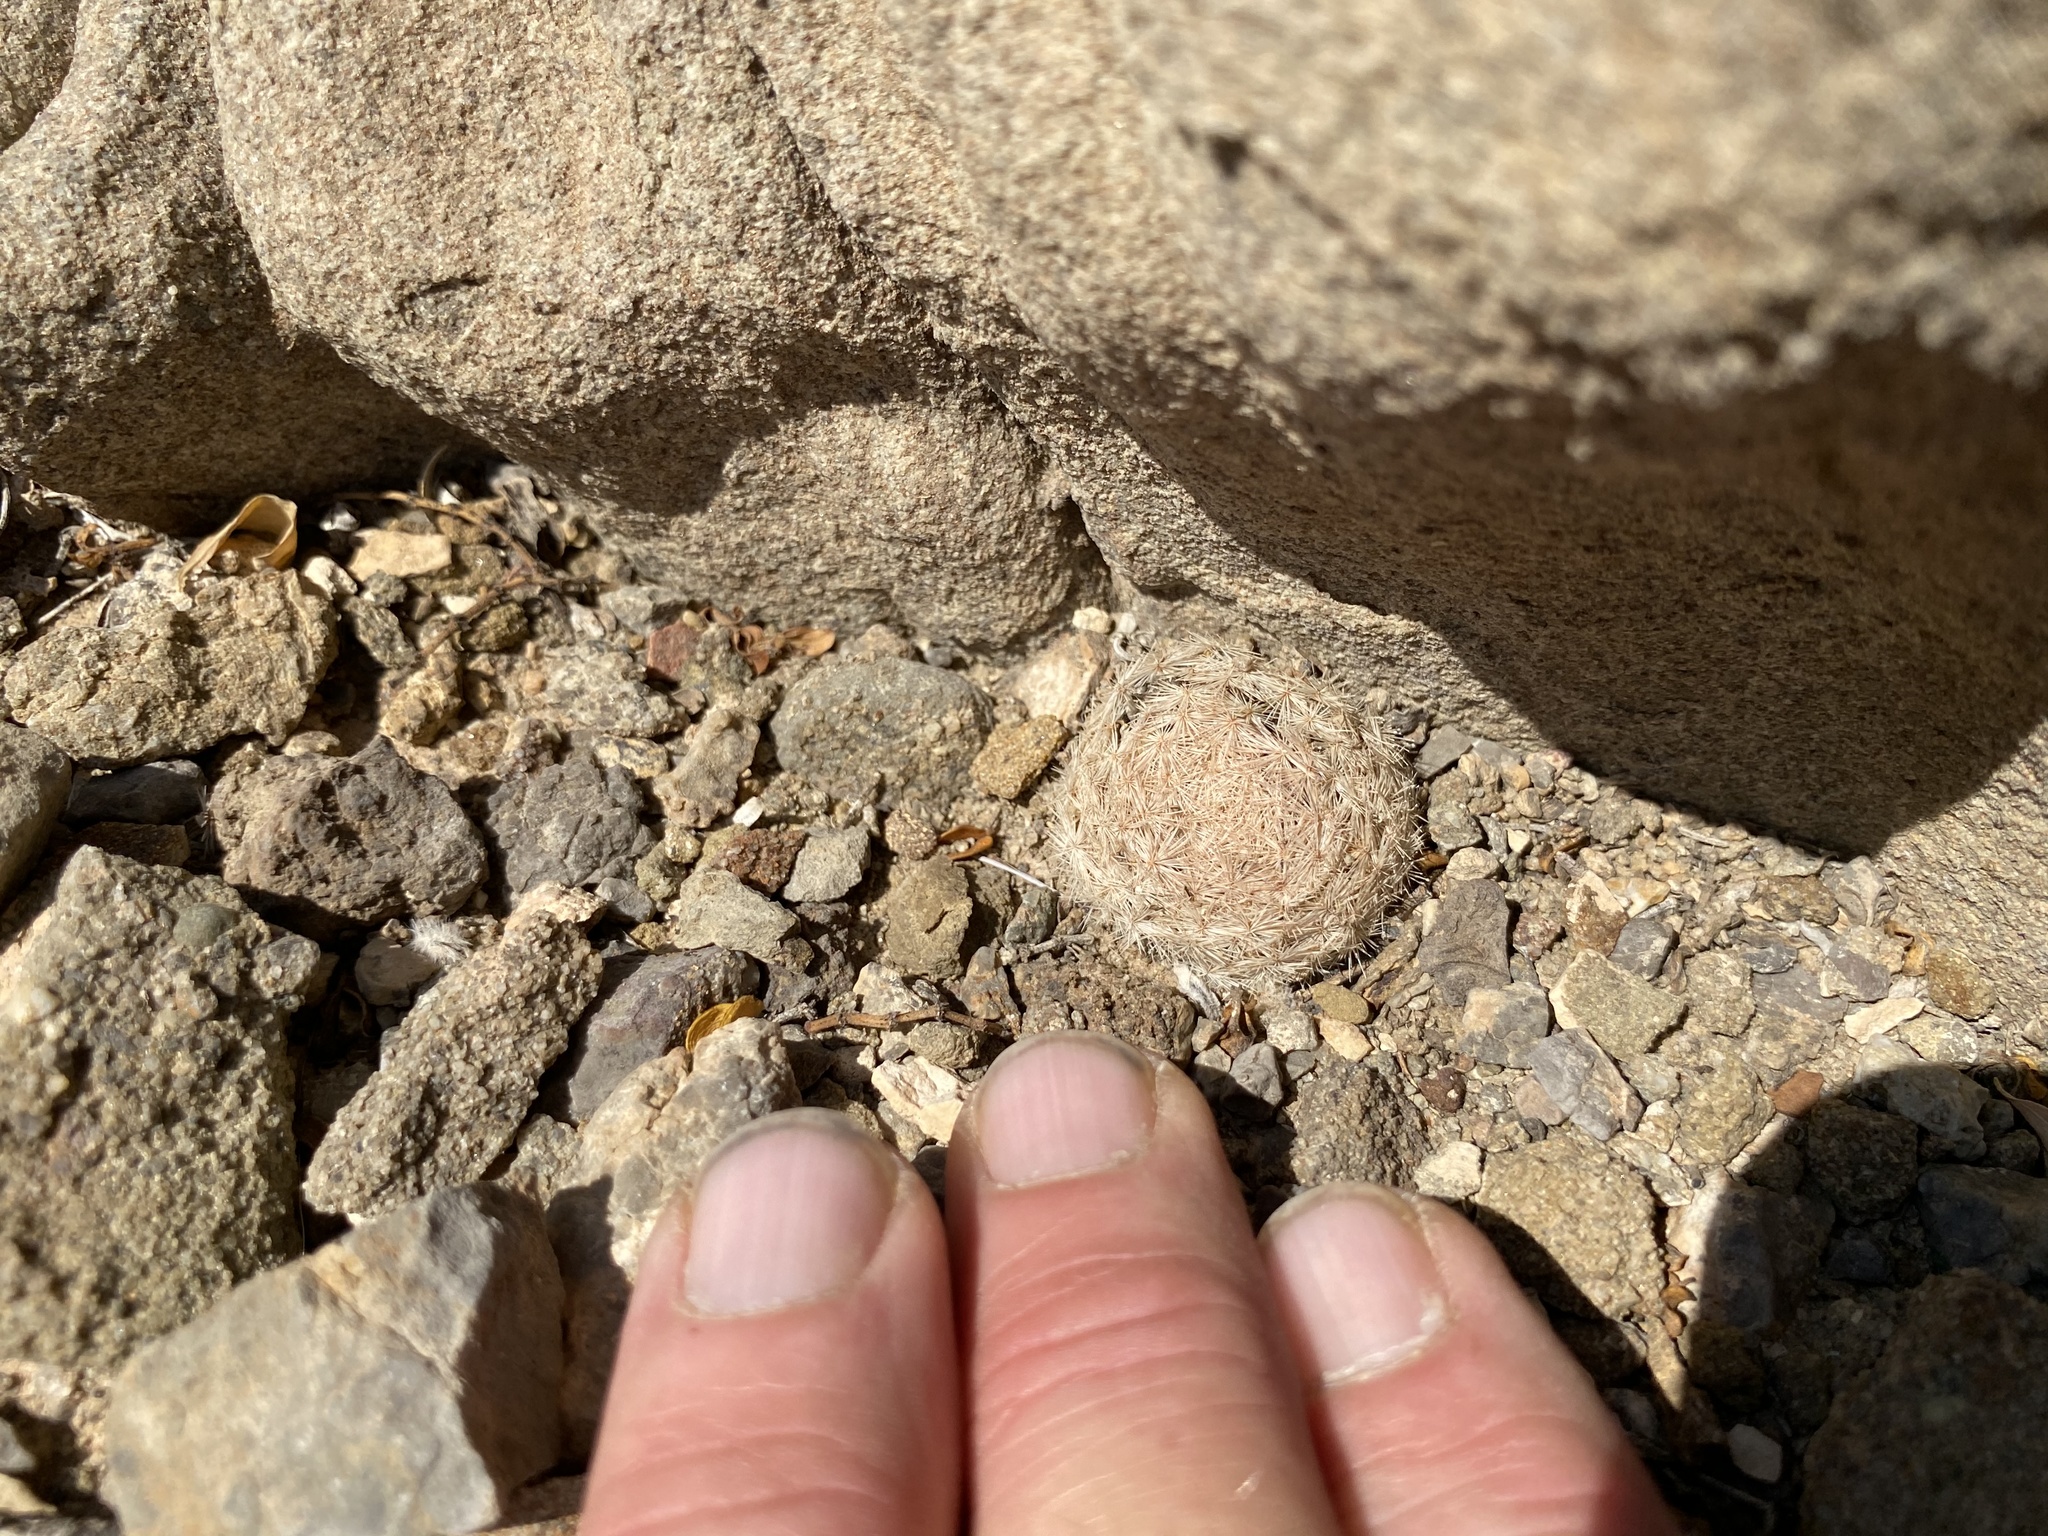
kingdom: Plantae
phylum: Tracheophyta
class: Magnoliopsida
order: Caryophyllales
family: Cactaceae
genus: Mammillaria
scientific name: Mammillaria lasiacantha
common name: Lace-spine nipple cactus
